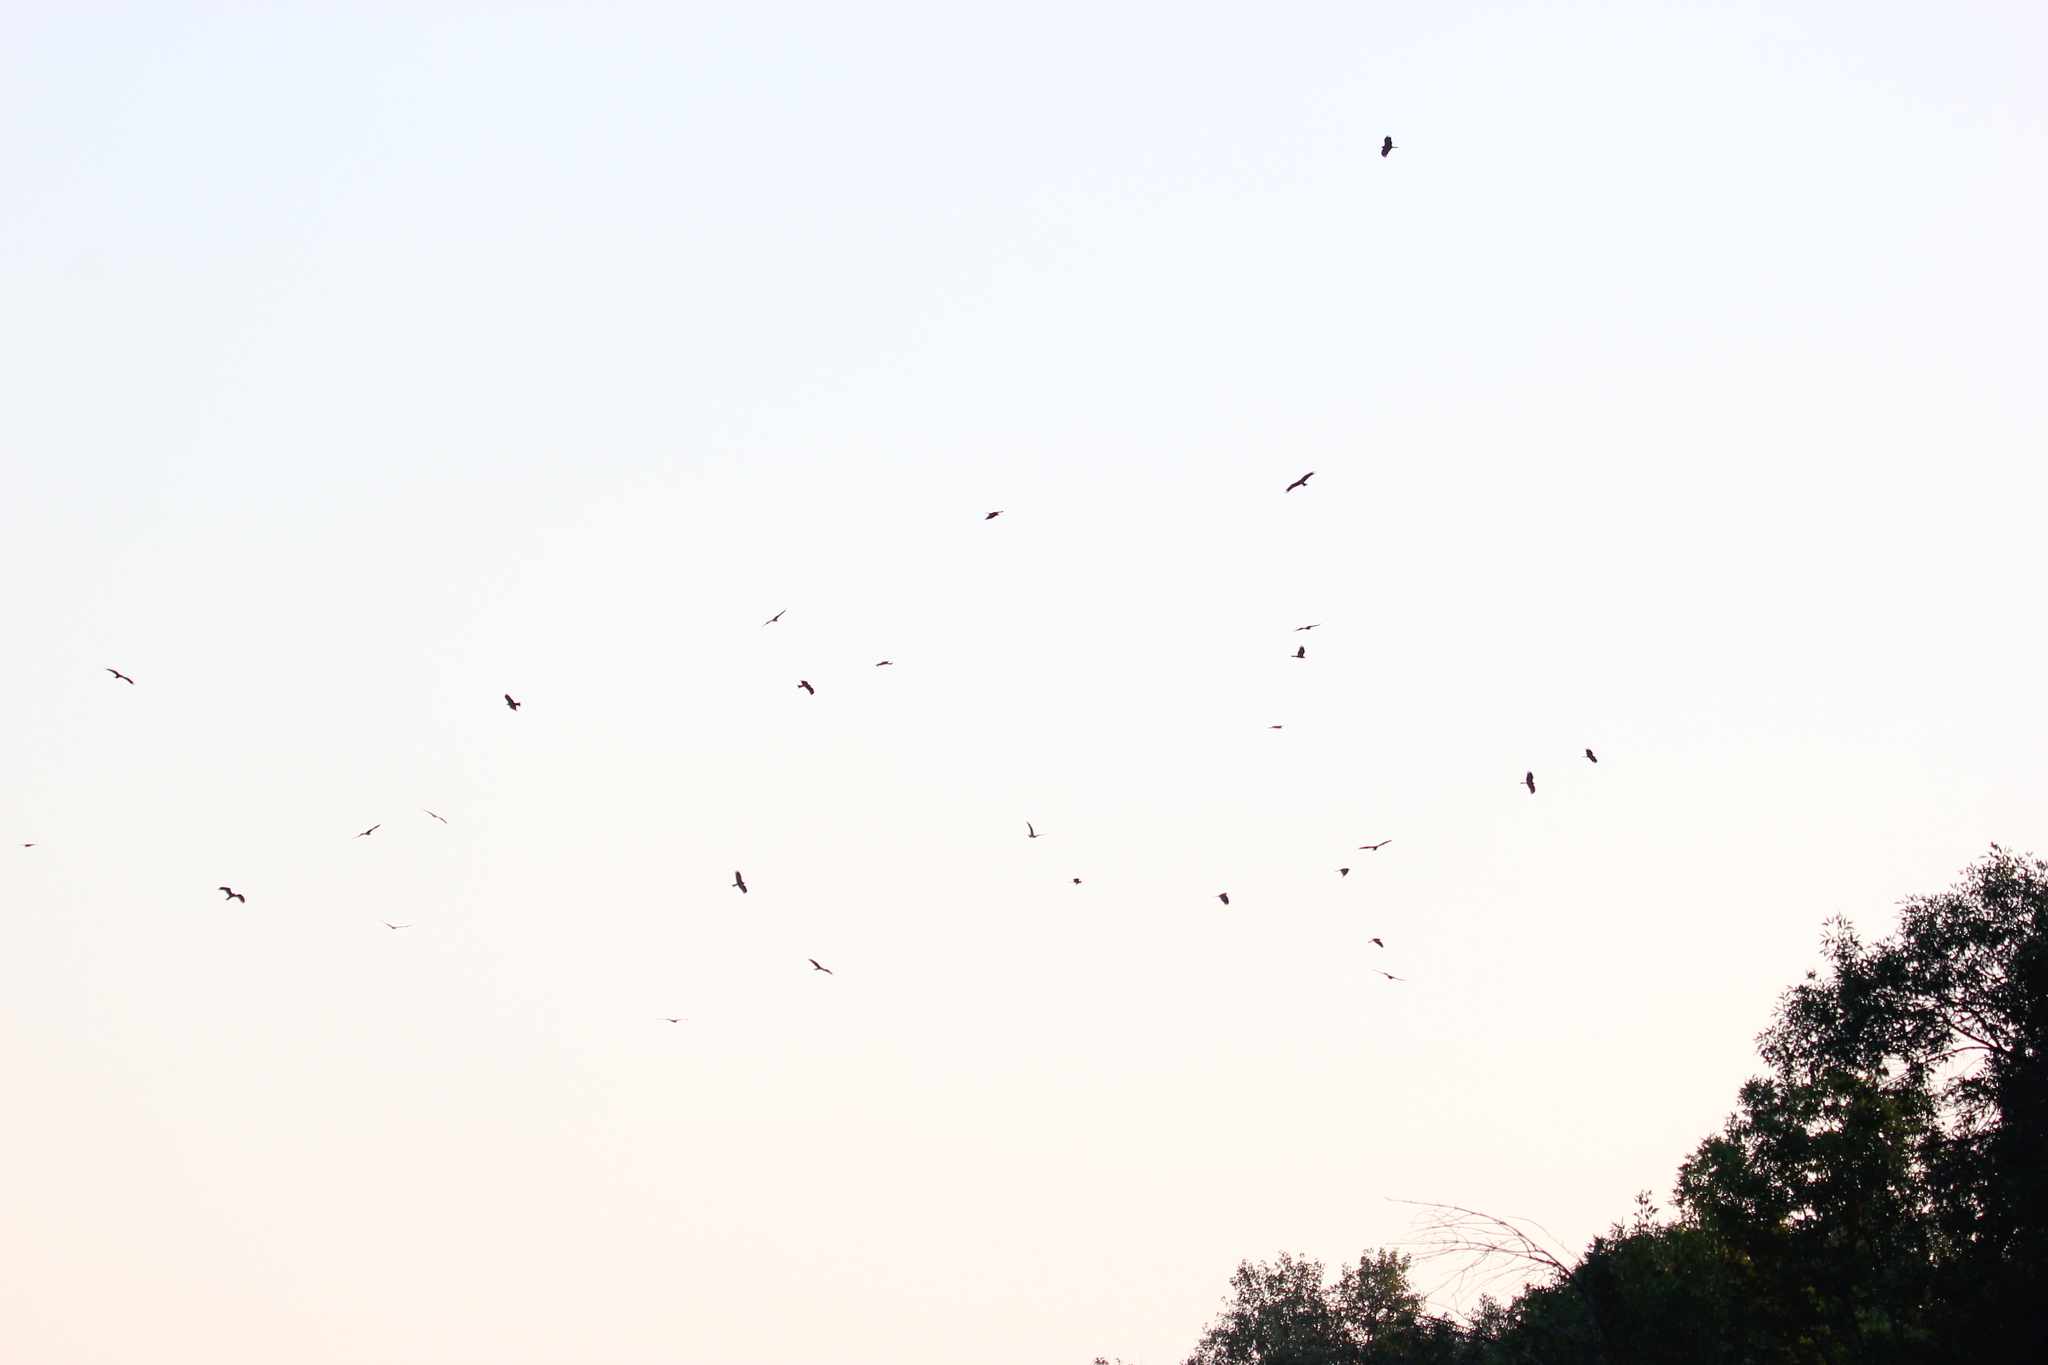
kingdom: Animalia
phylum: Chordata
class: Aves
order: Accipitriformes
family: Accipitridae
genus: Milvus
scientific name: Milvus migrans
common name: Black kite
